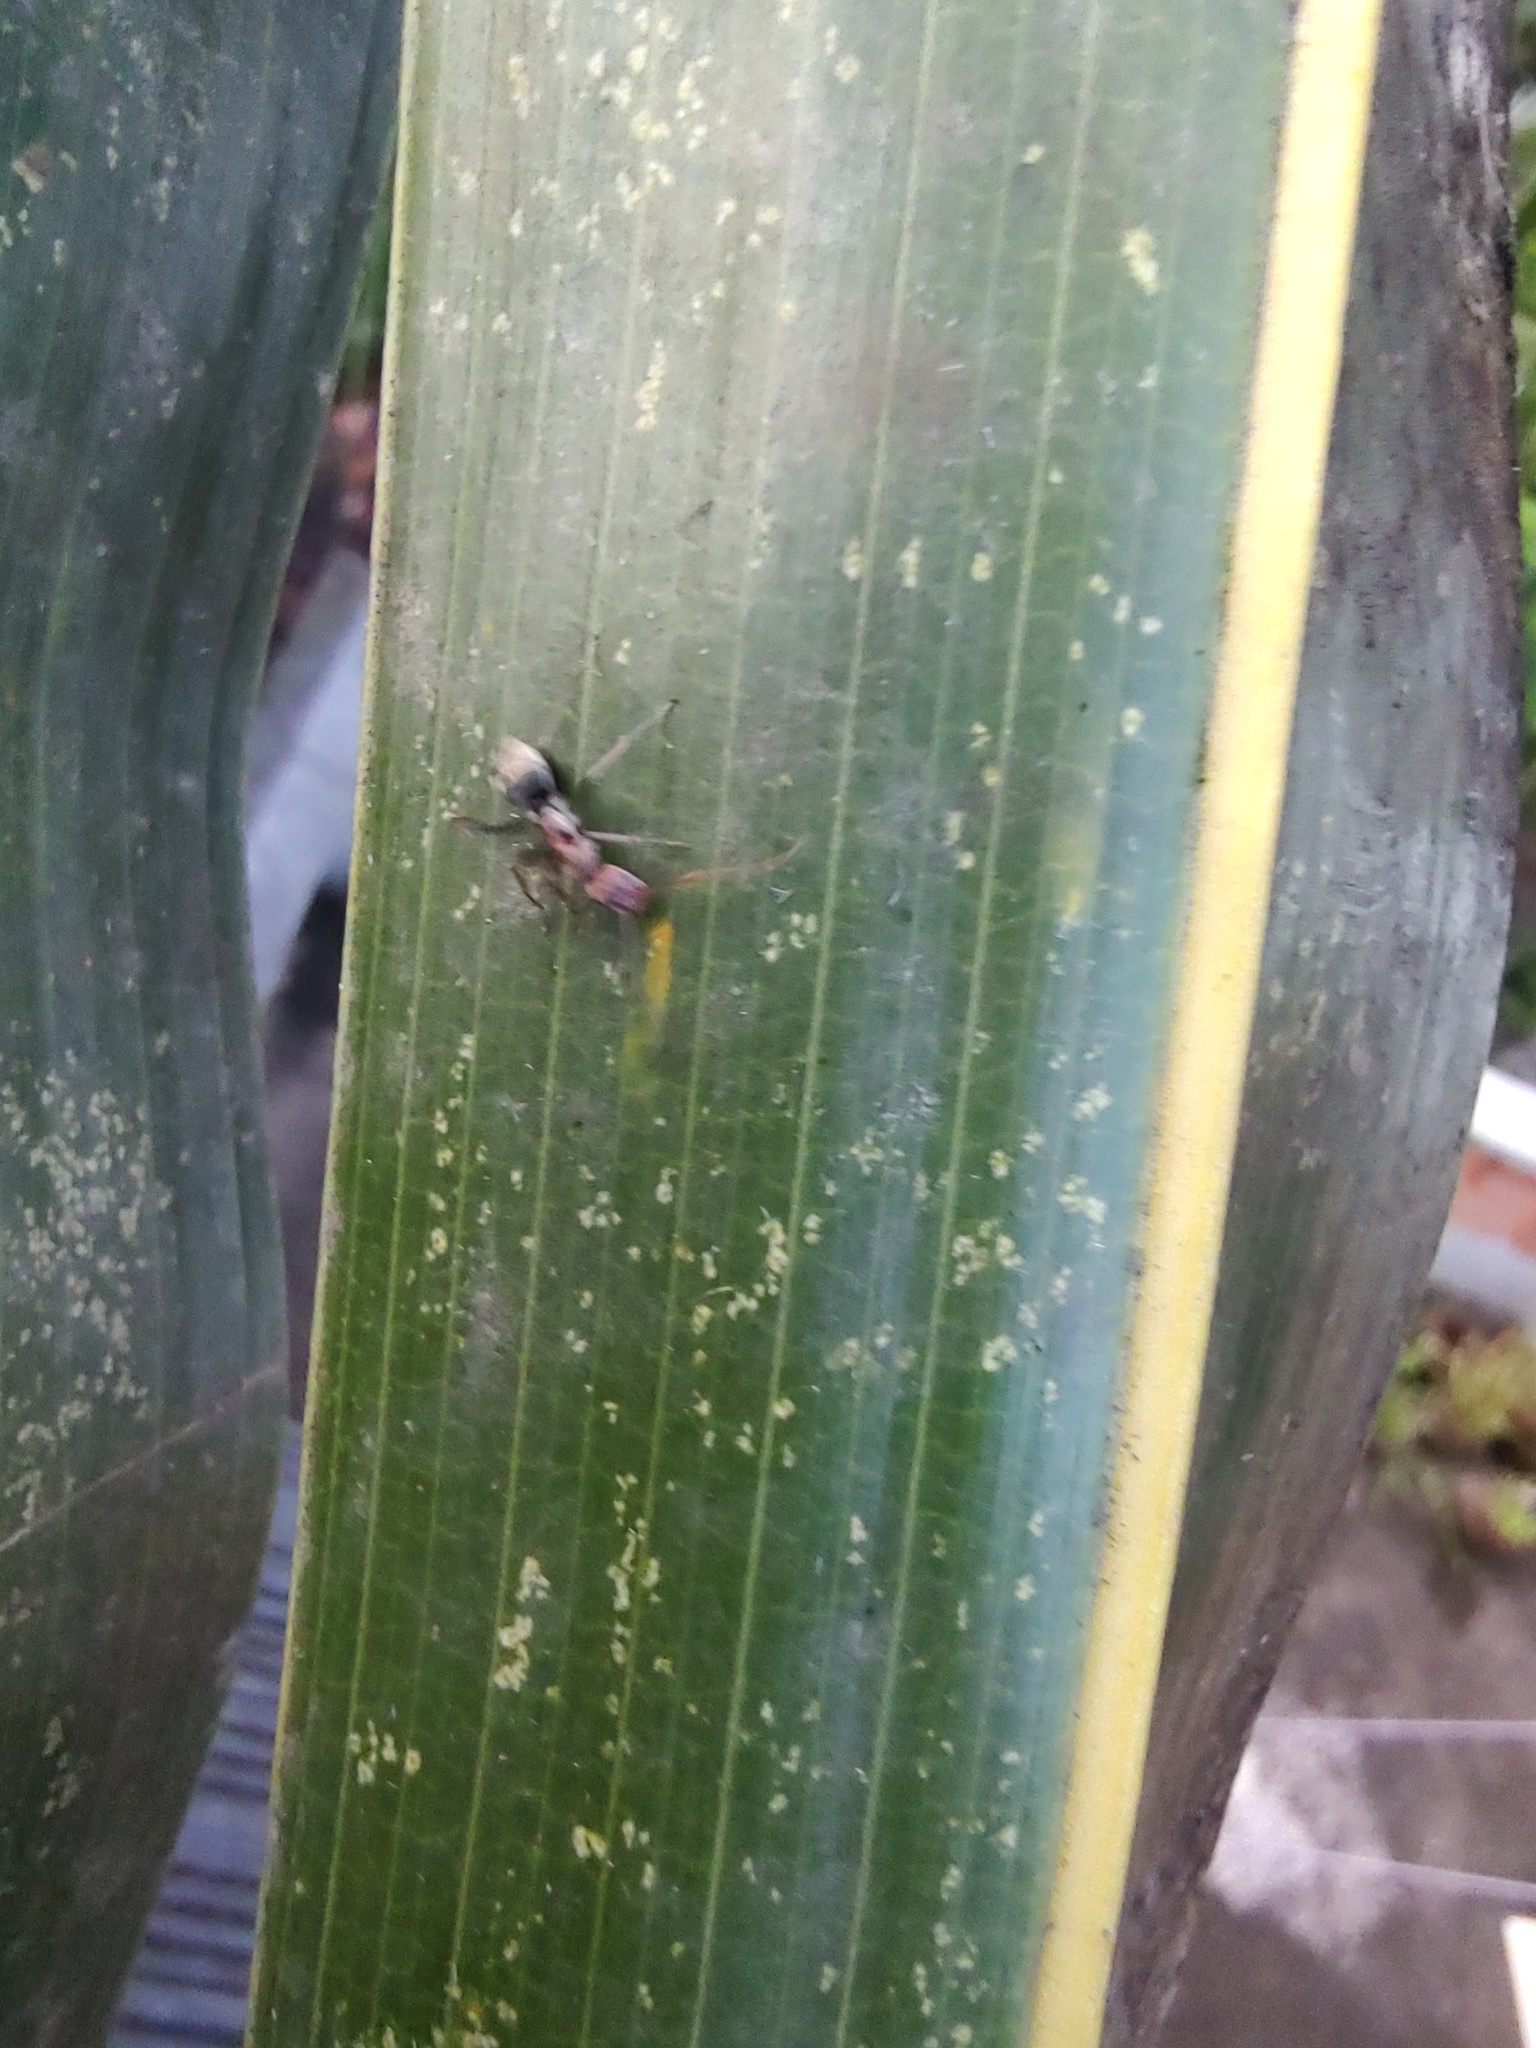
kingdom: Animalia
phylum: Arthropoda
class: Insecta
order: Hymenoptera
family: Formicidae
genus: Camponotus
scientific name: Camponotus rufoglaucus
